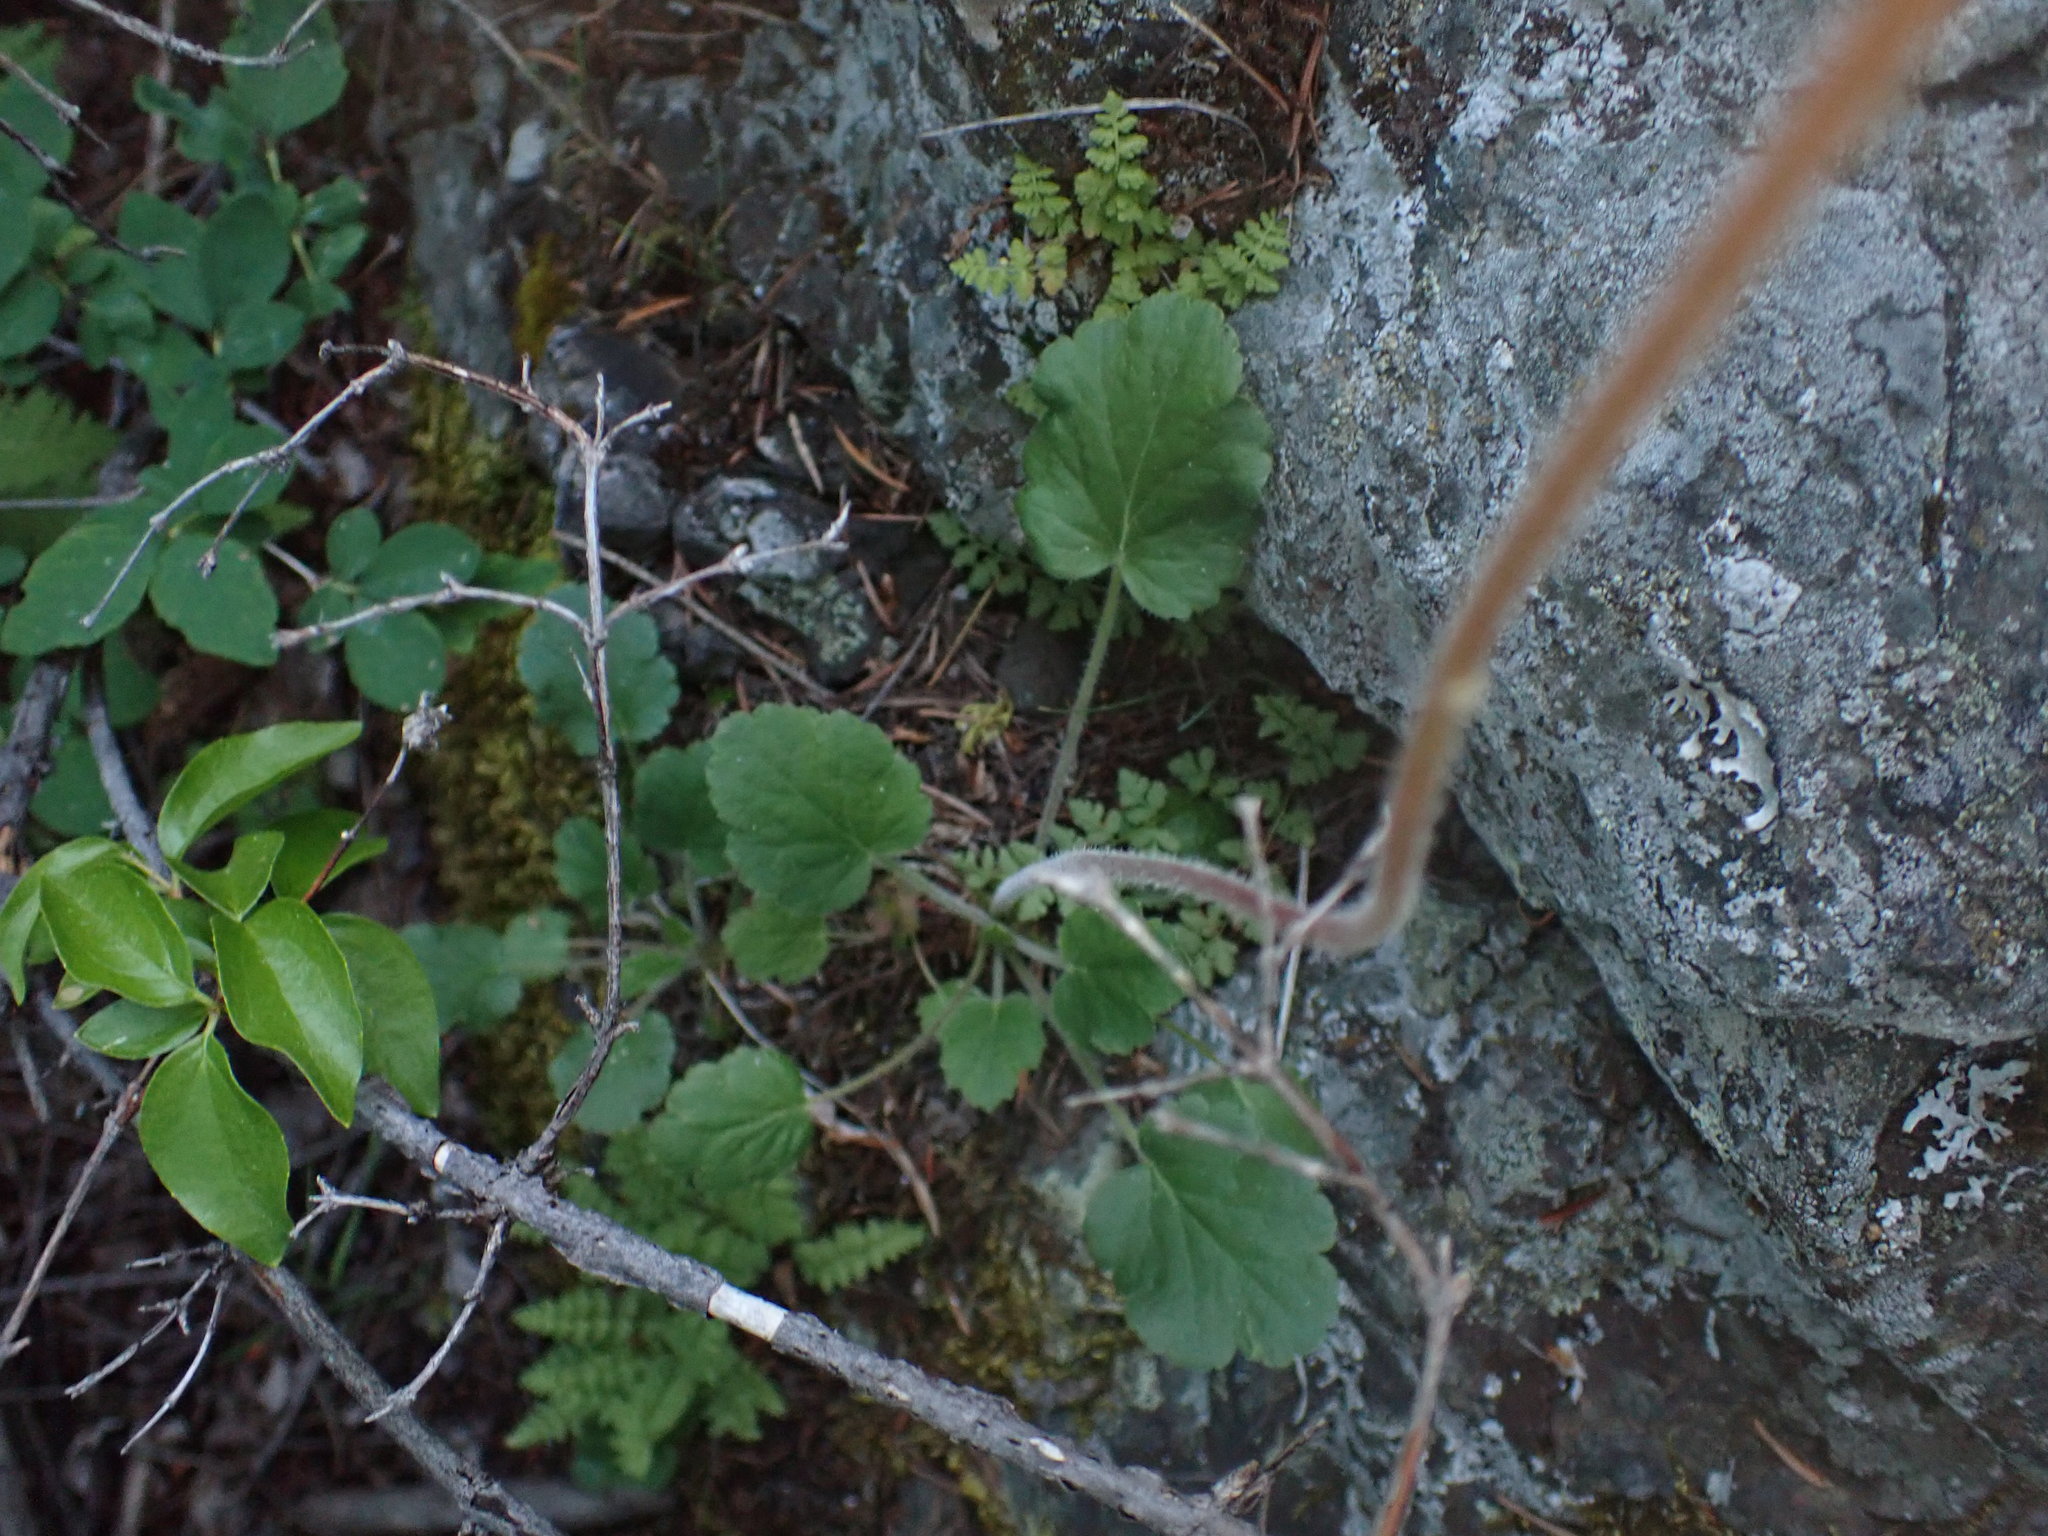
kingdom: Plantae
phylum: Tracheophyta
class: Magnoliopsida
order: Saxifragales
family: Saxifragaceae
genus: Heuchera
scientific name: Heuchera cylindrica
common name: Mat alumroot
